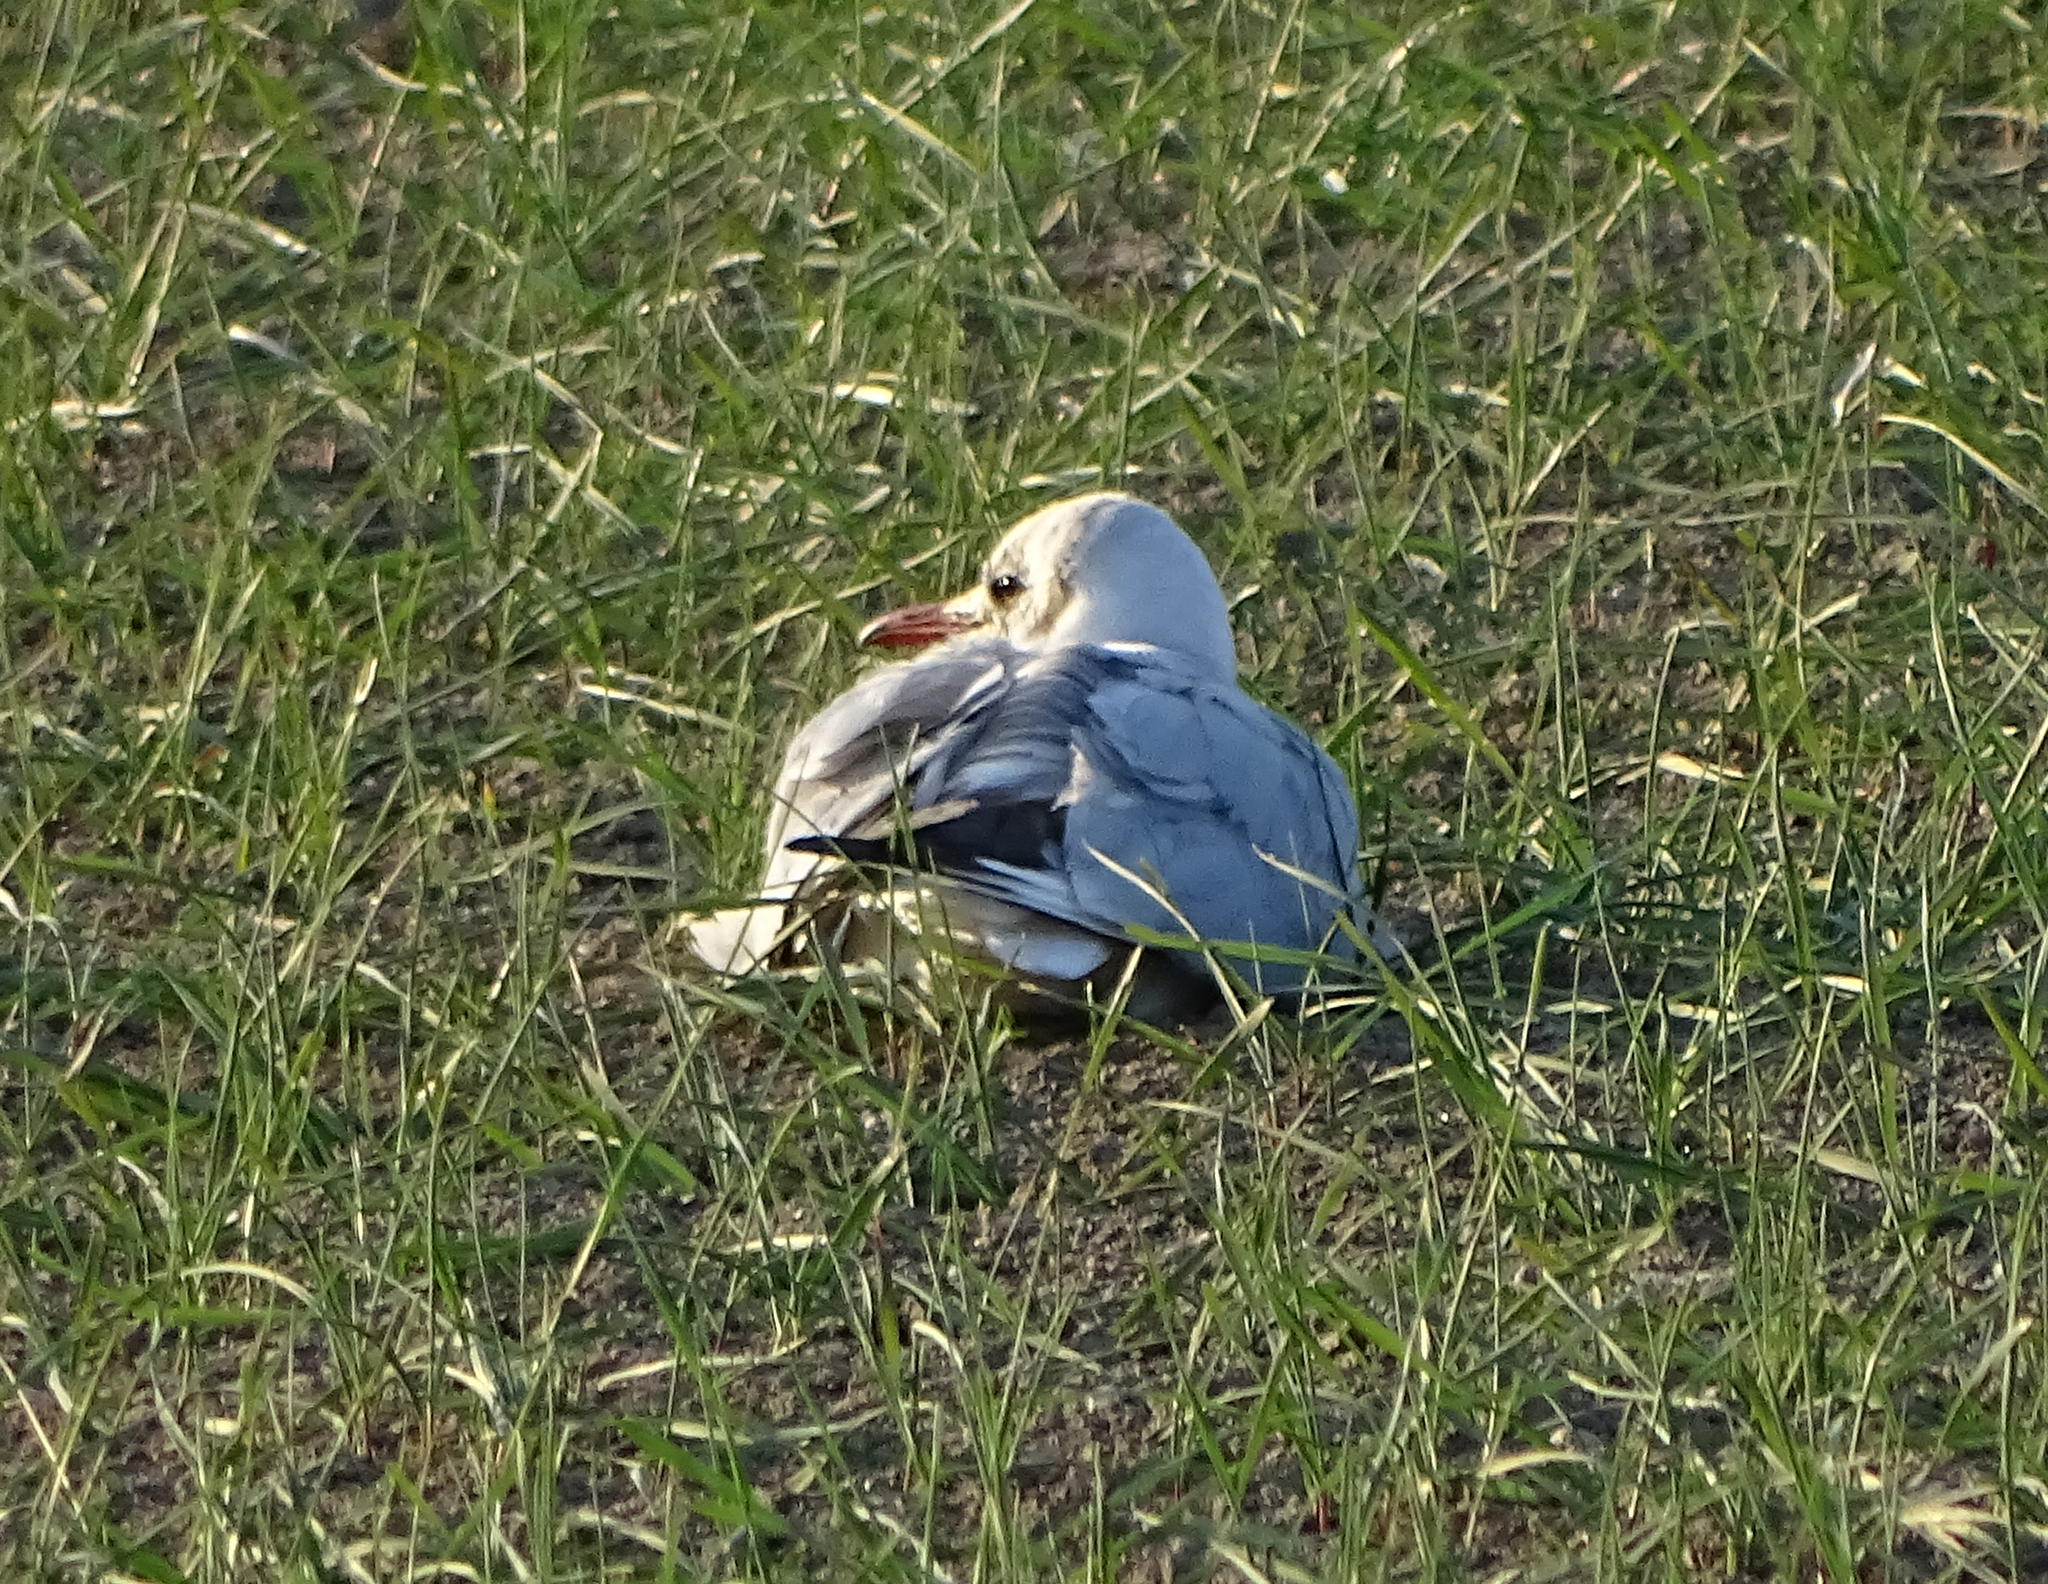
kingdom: Animalia
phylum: Chordata
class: Aves
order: Charadriiformes
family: Laridae
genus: Chroicocephalus
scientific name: Chroicocephalus ridibundus
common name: Black-headed gull
